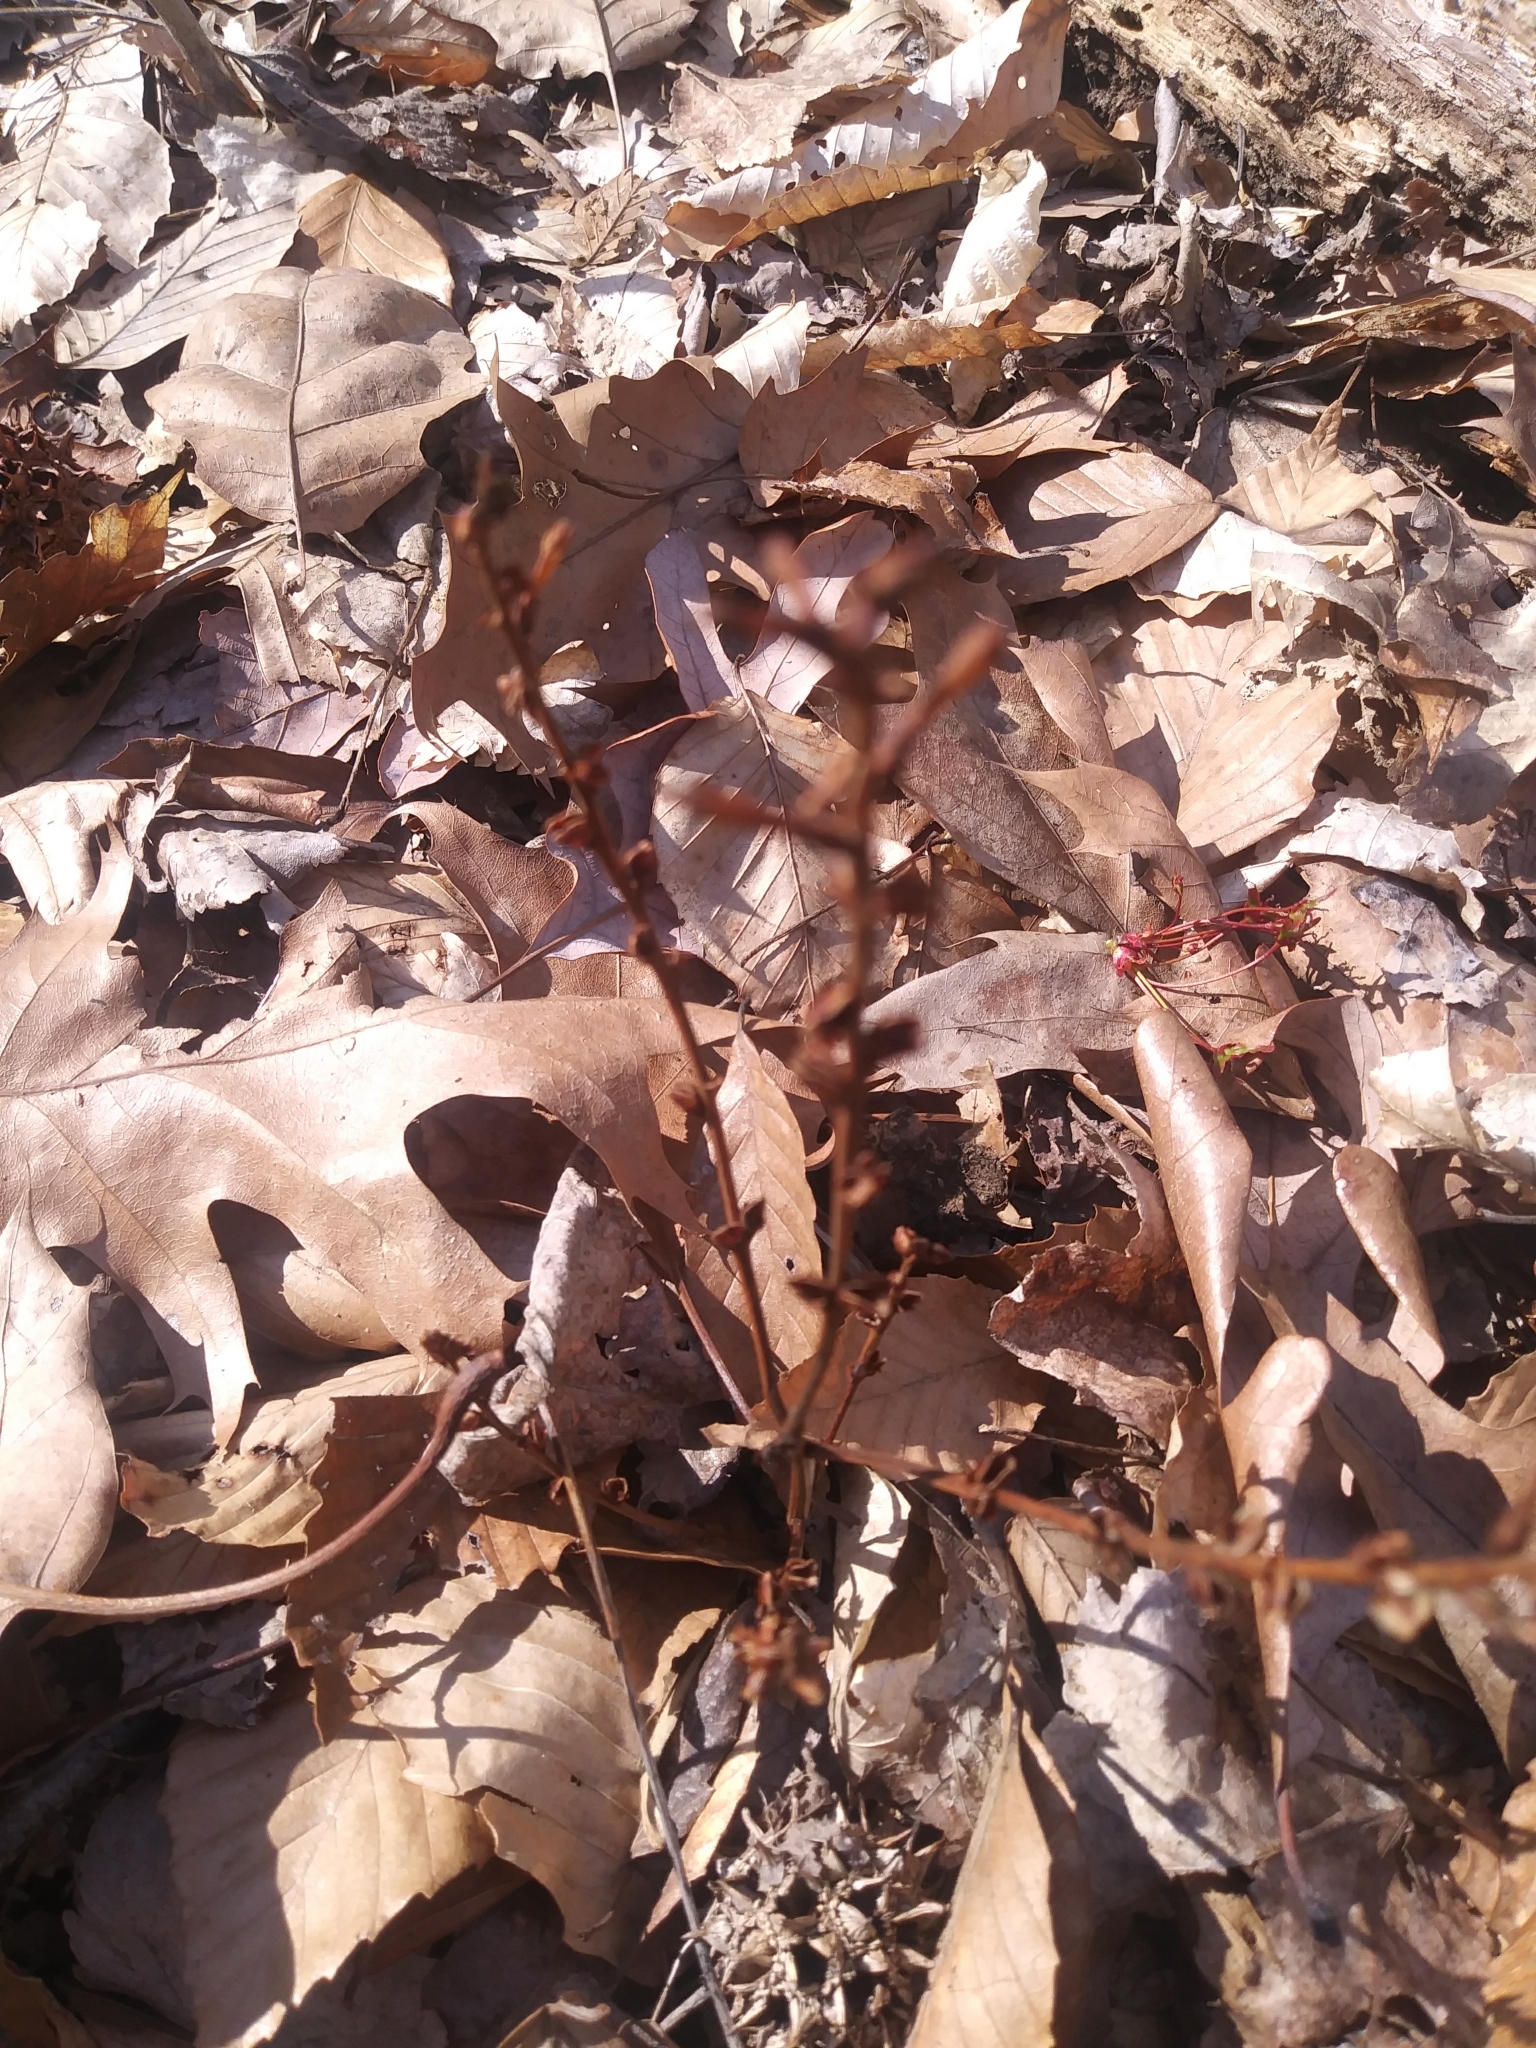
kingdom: Plantae
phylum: Tracheophyta
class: Magnoliopsida
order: Lamiales
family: Orobanchaceae
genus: Epifagus
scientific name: Epifagus virginiana
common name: Beechdrops
